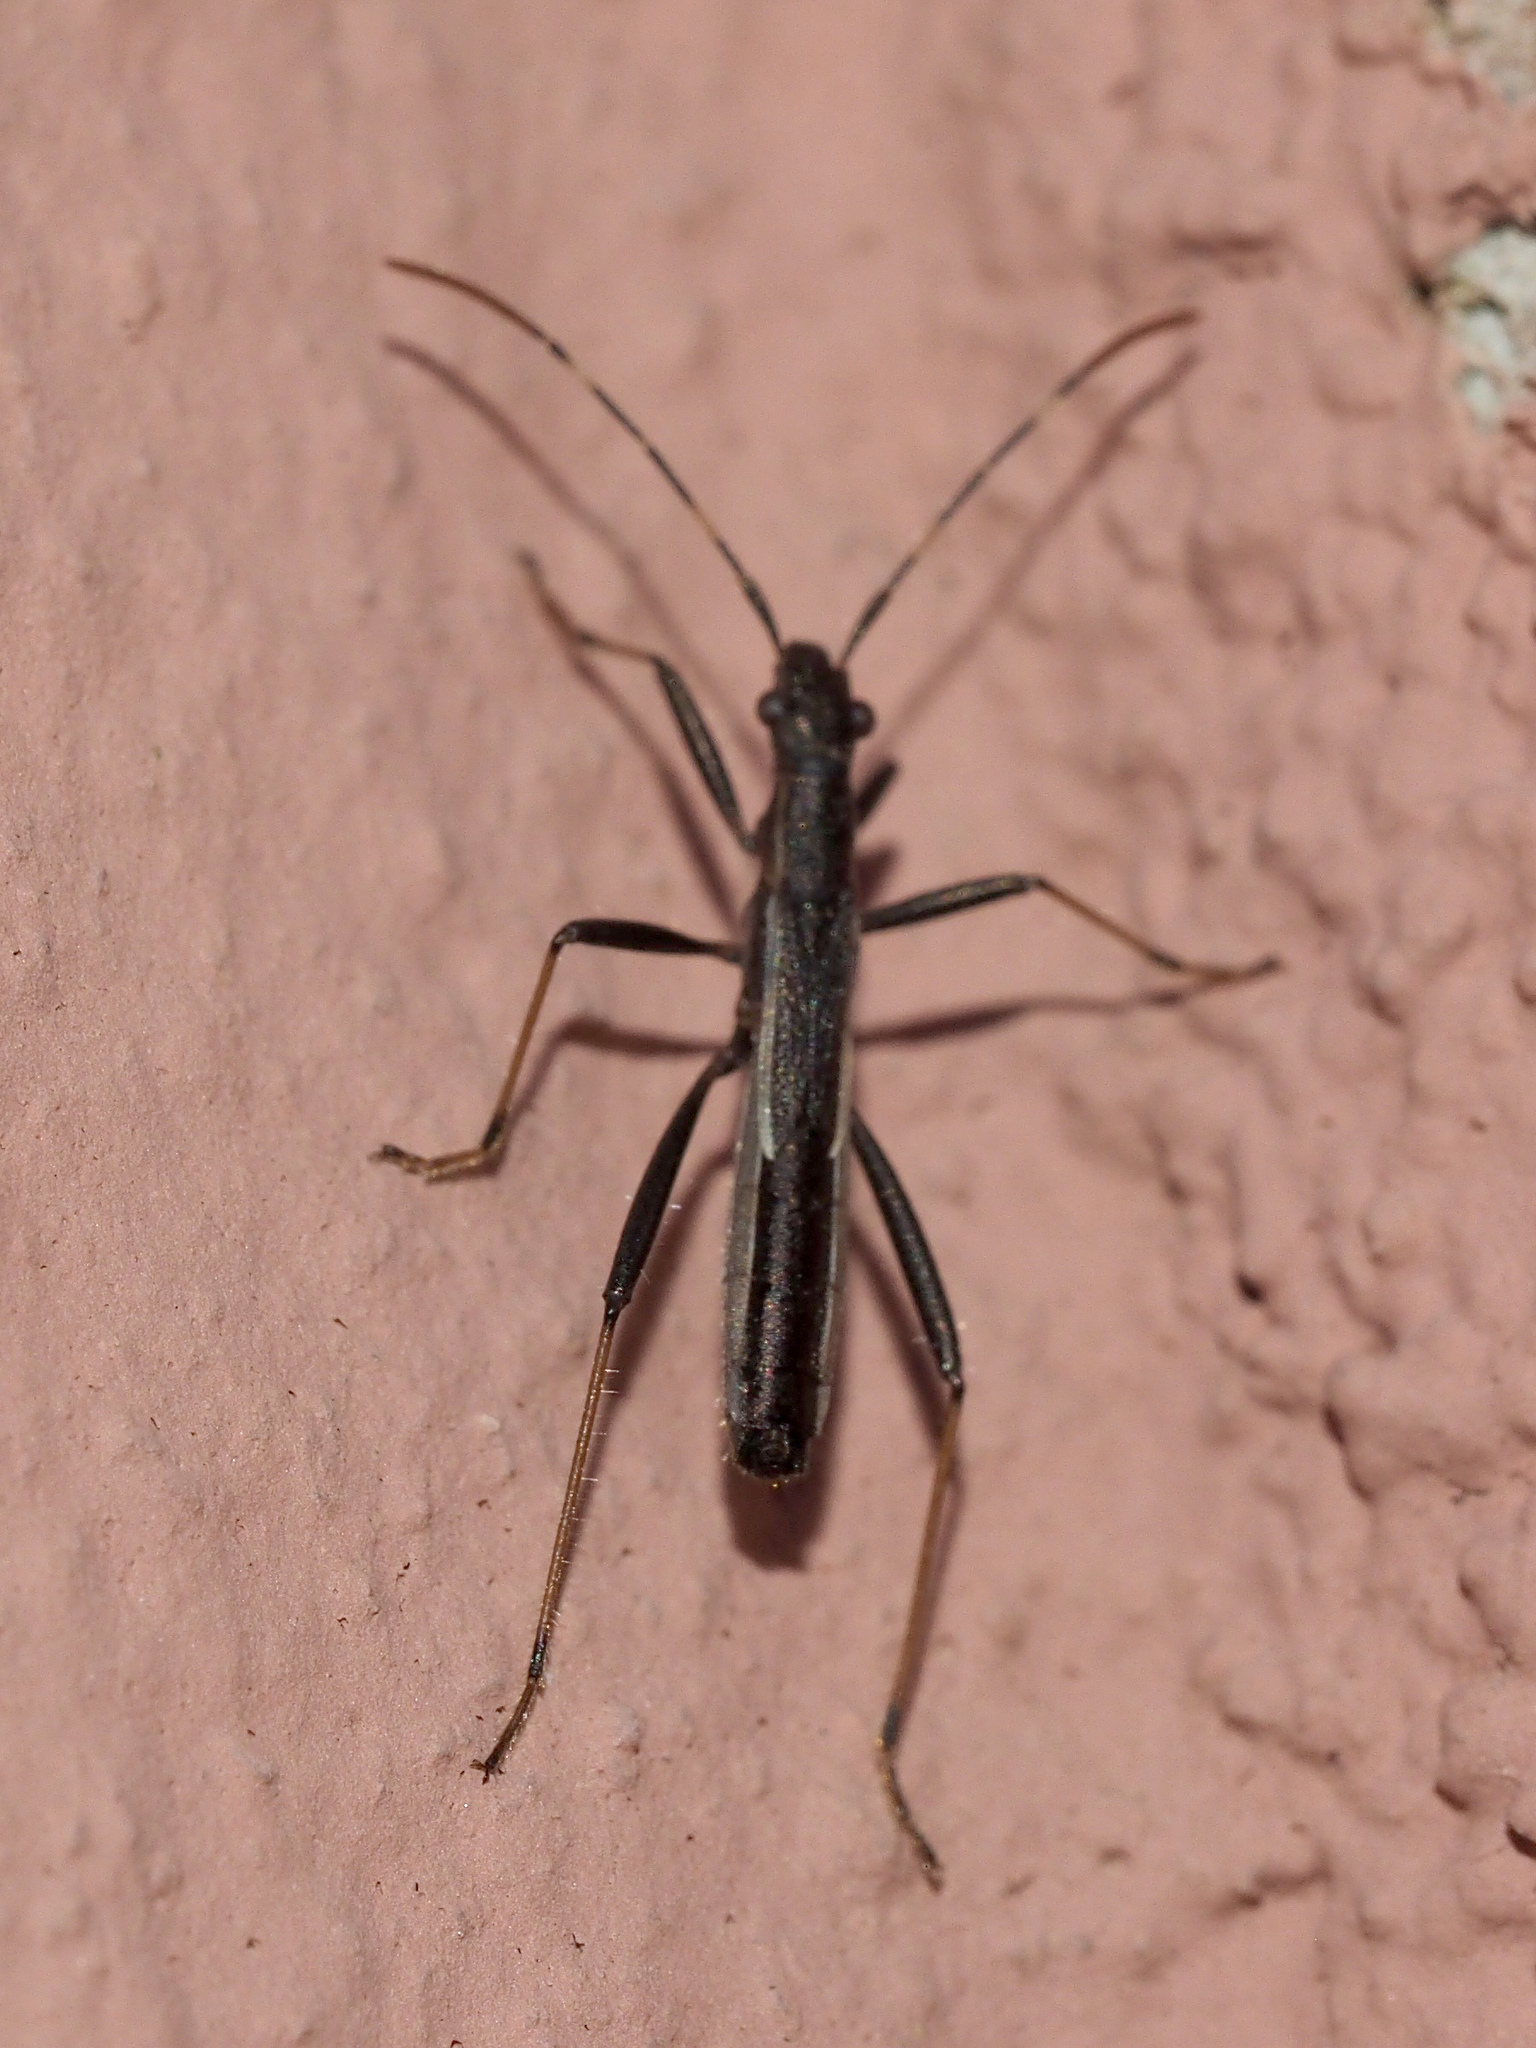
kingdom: Animalia
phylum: Arthropoda
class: Insecta
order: Hemiptera
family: Alydidae
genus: Micrelytra
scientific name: Micrelytra fossularum
